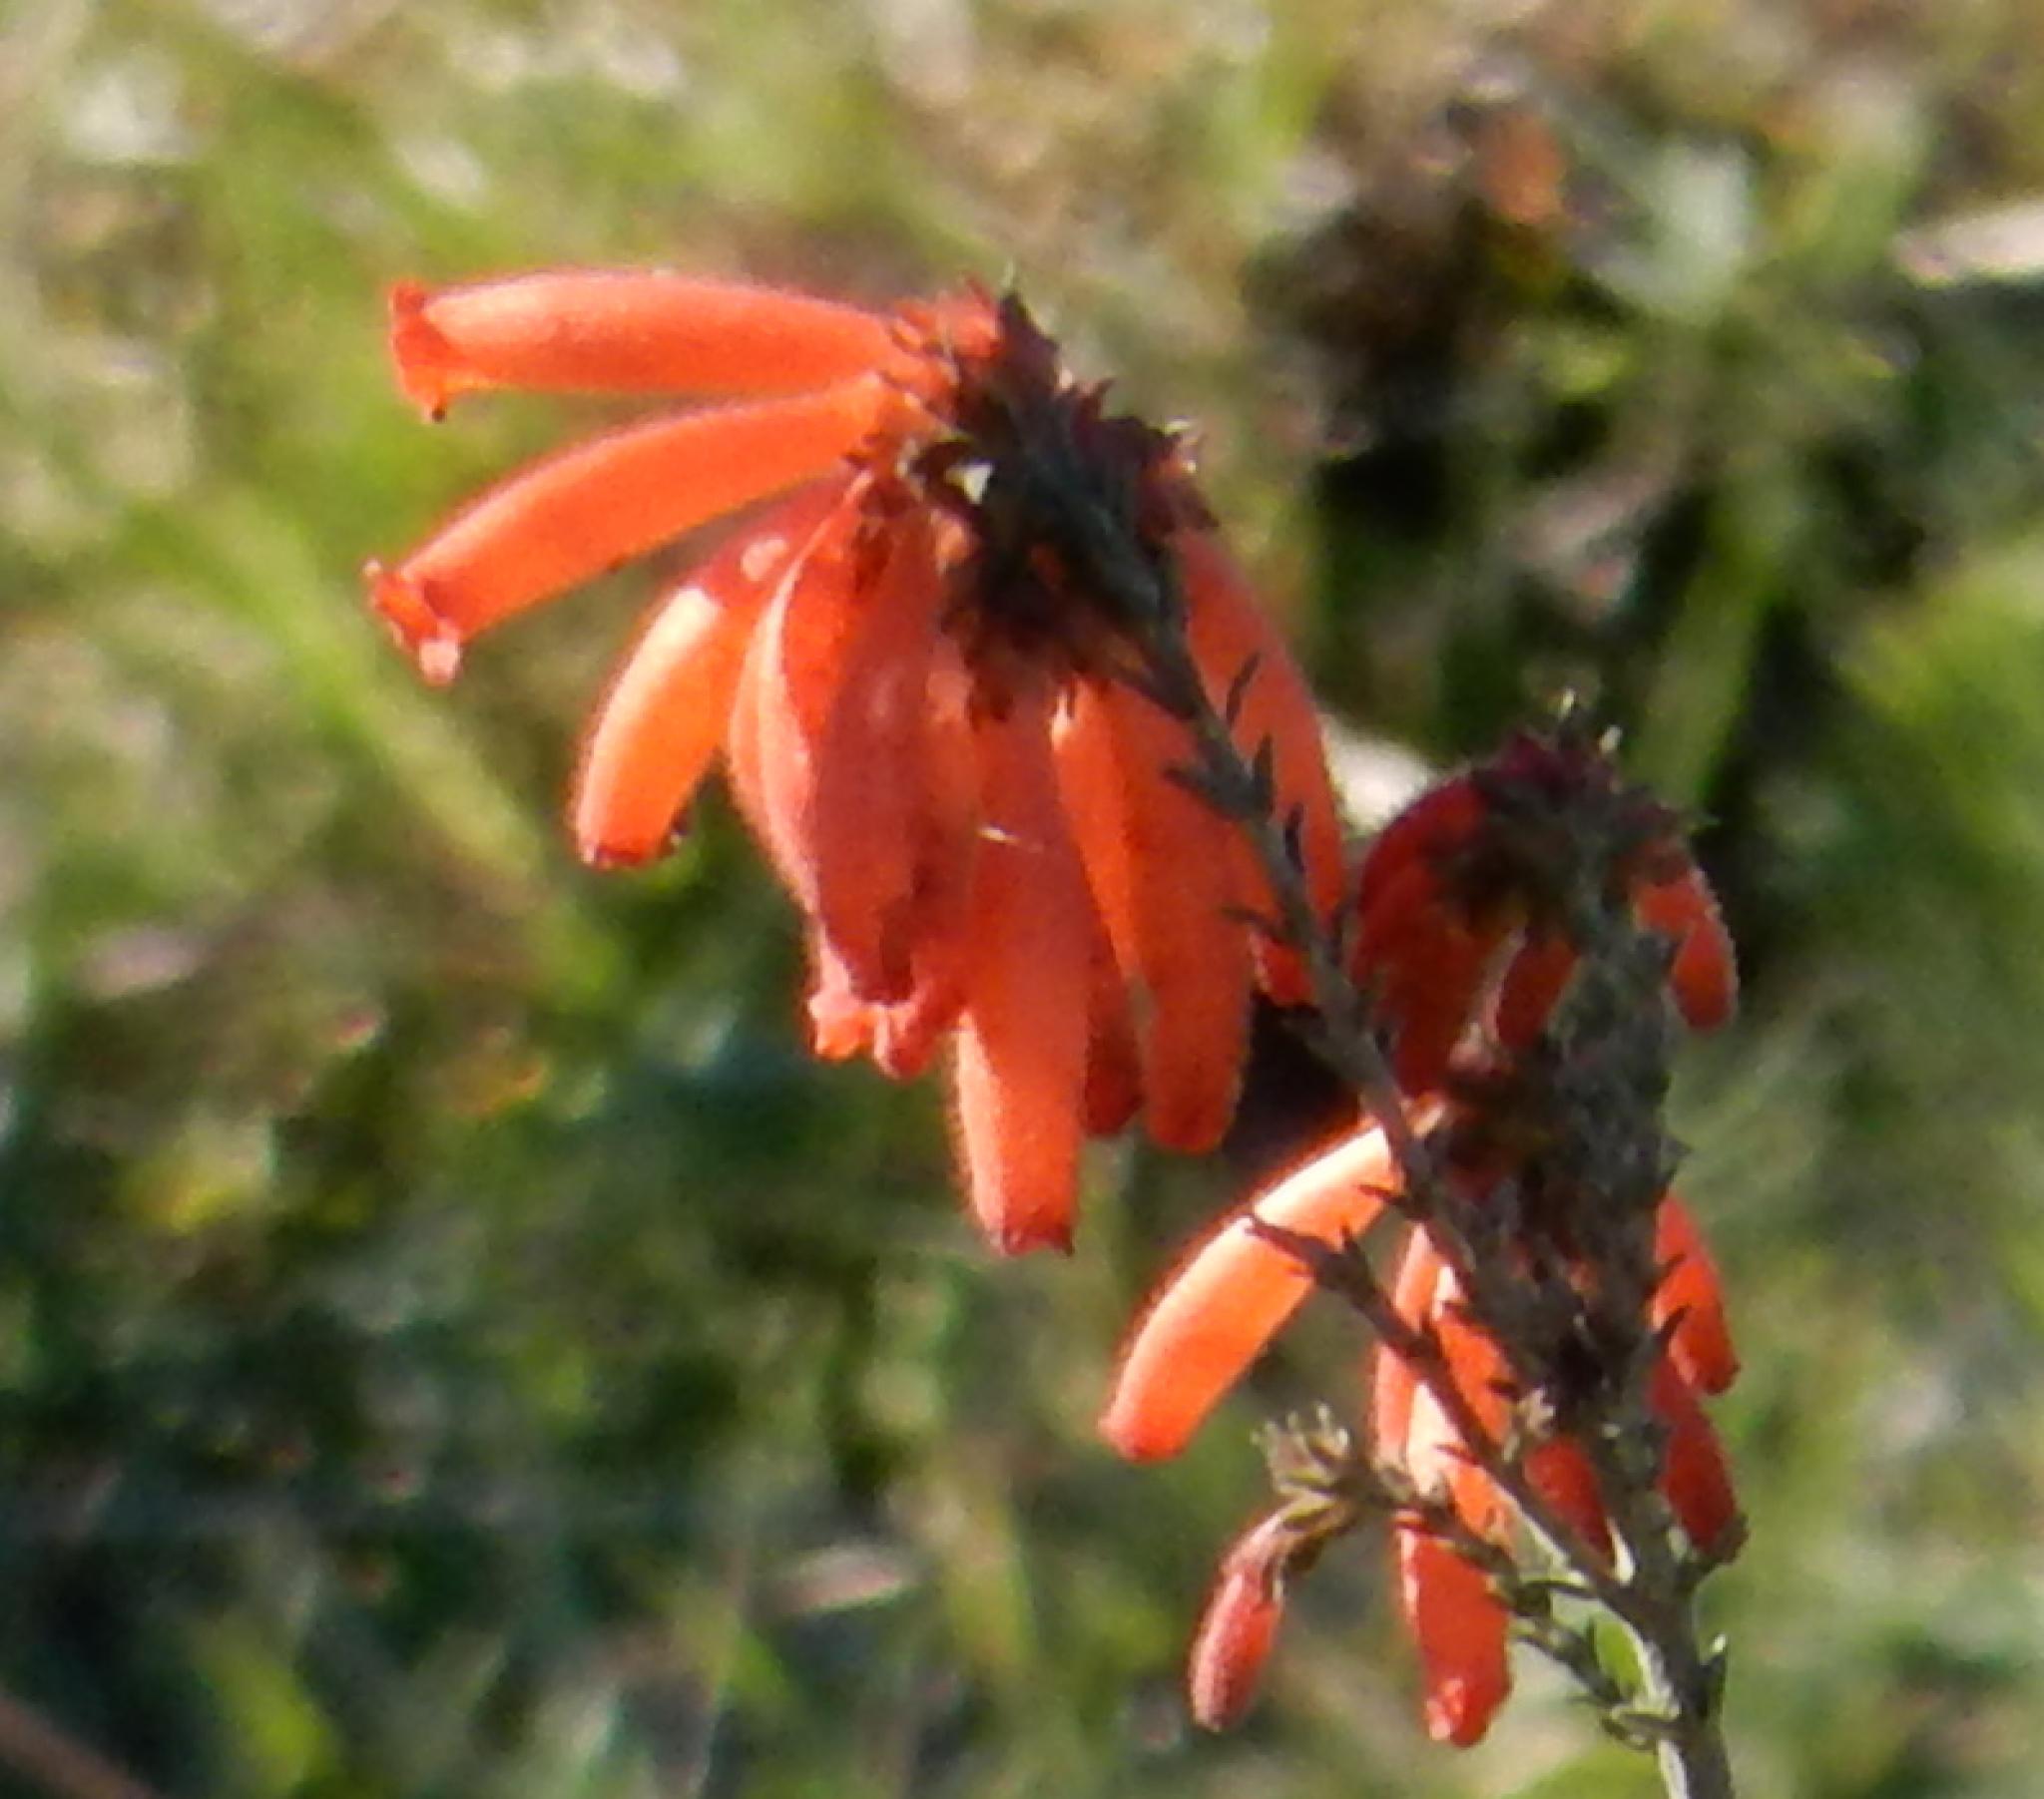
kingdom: Plantae
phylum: Tracheophyta
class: Magnoliopsida
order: Ericales
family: Ericaceae
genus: Erica
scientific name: Erica cerinthoides
